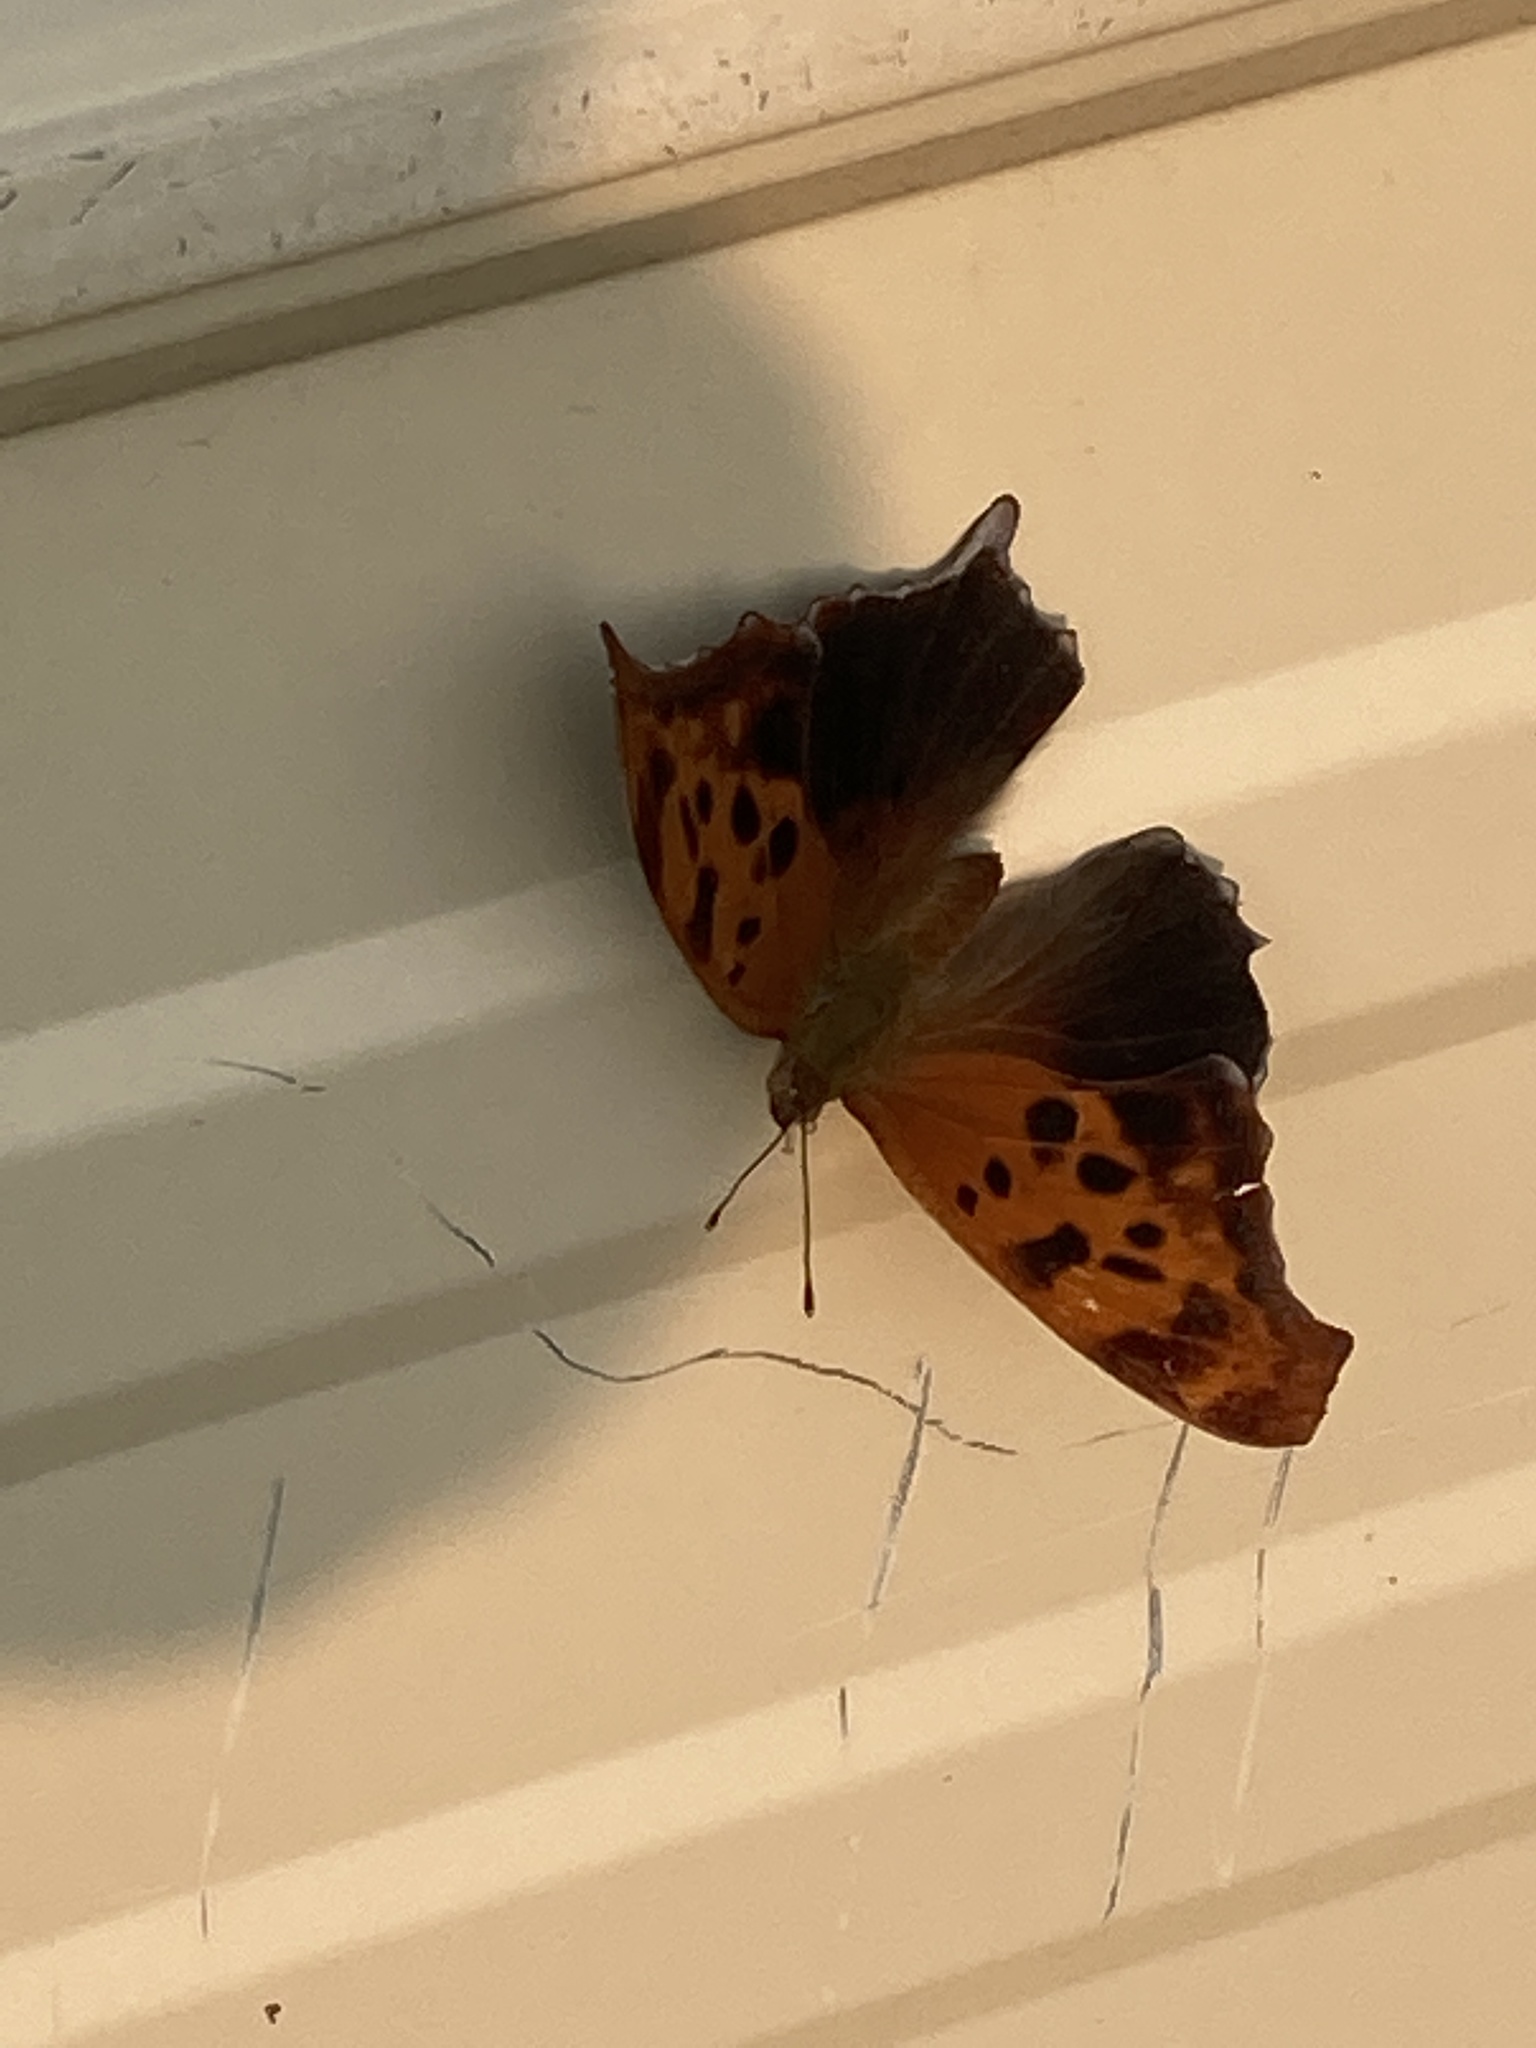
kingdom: Animalia
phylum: Arthropoda
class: Insecta
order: Lepidoptera
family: Nymphalidae
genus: Polygonia
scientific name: Polygonia interrogationis
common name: Question mark
